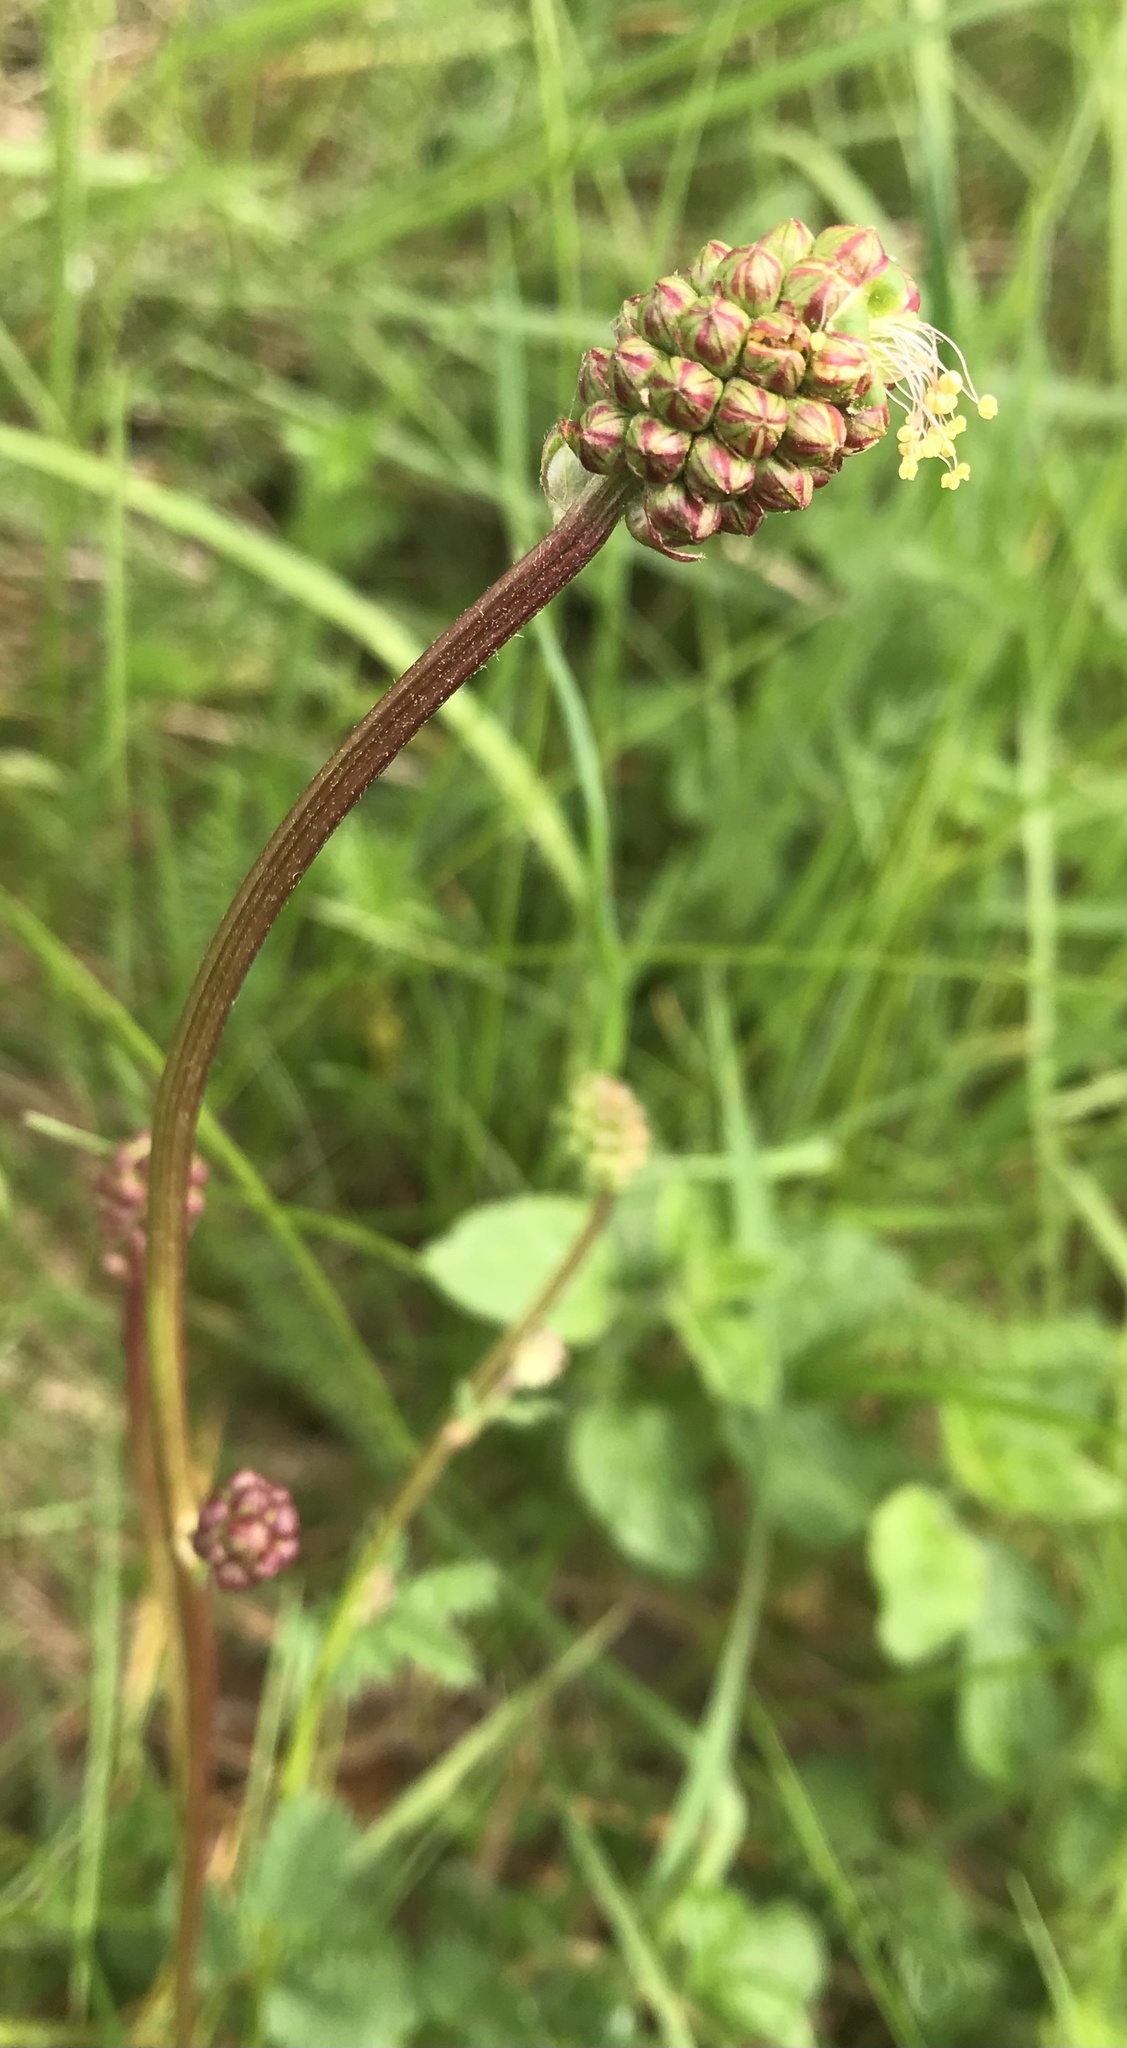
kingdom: Plantae
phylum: Tracheophyta
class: Magnoliopsida
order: Rosales
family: Rosaceae
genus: Poterium
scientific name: Poterium sanguisorba
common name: Salad burnet
